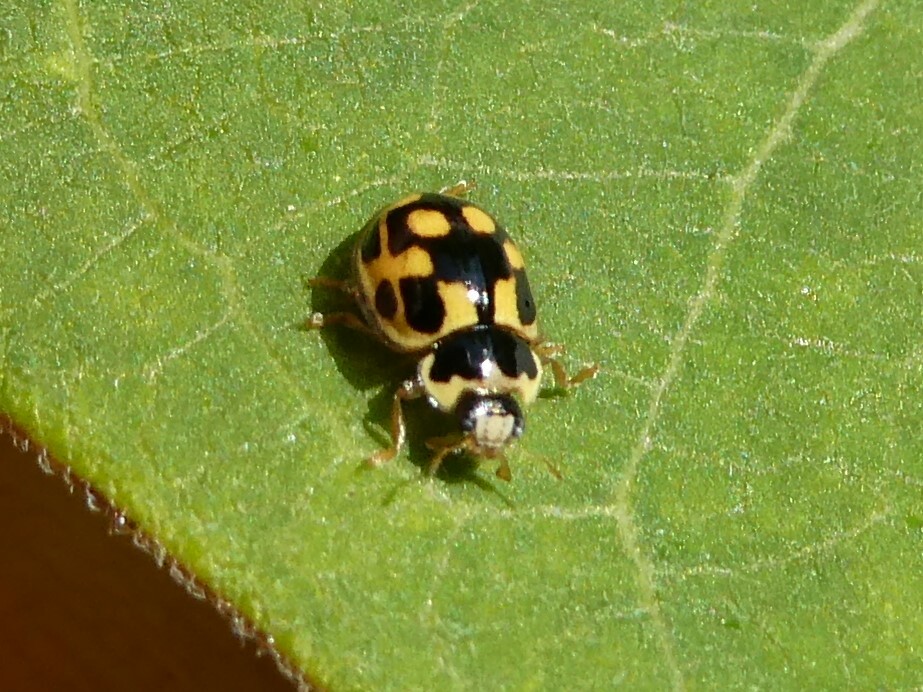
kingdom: Animalia
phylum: Arthropoda
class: Insecta
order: Coleoptera
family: Coccinellidae
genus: Propylaea
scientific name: Propylaea quatuordecimpunctata
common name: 14-spotted ladybird beetle
